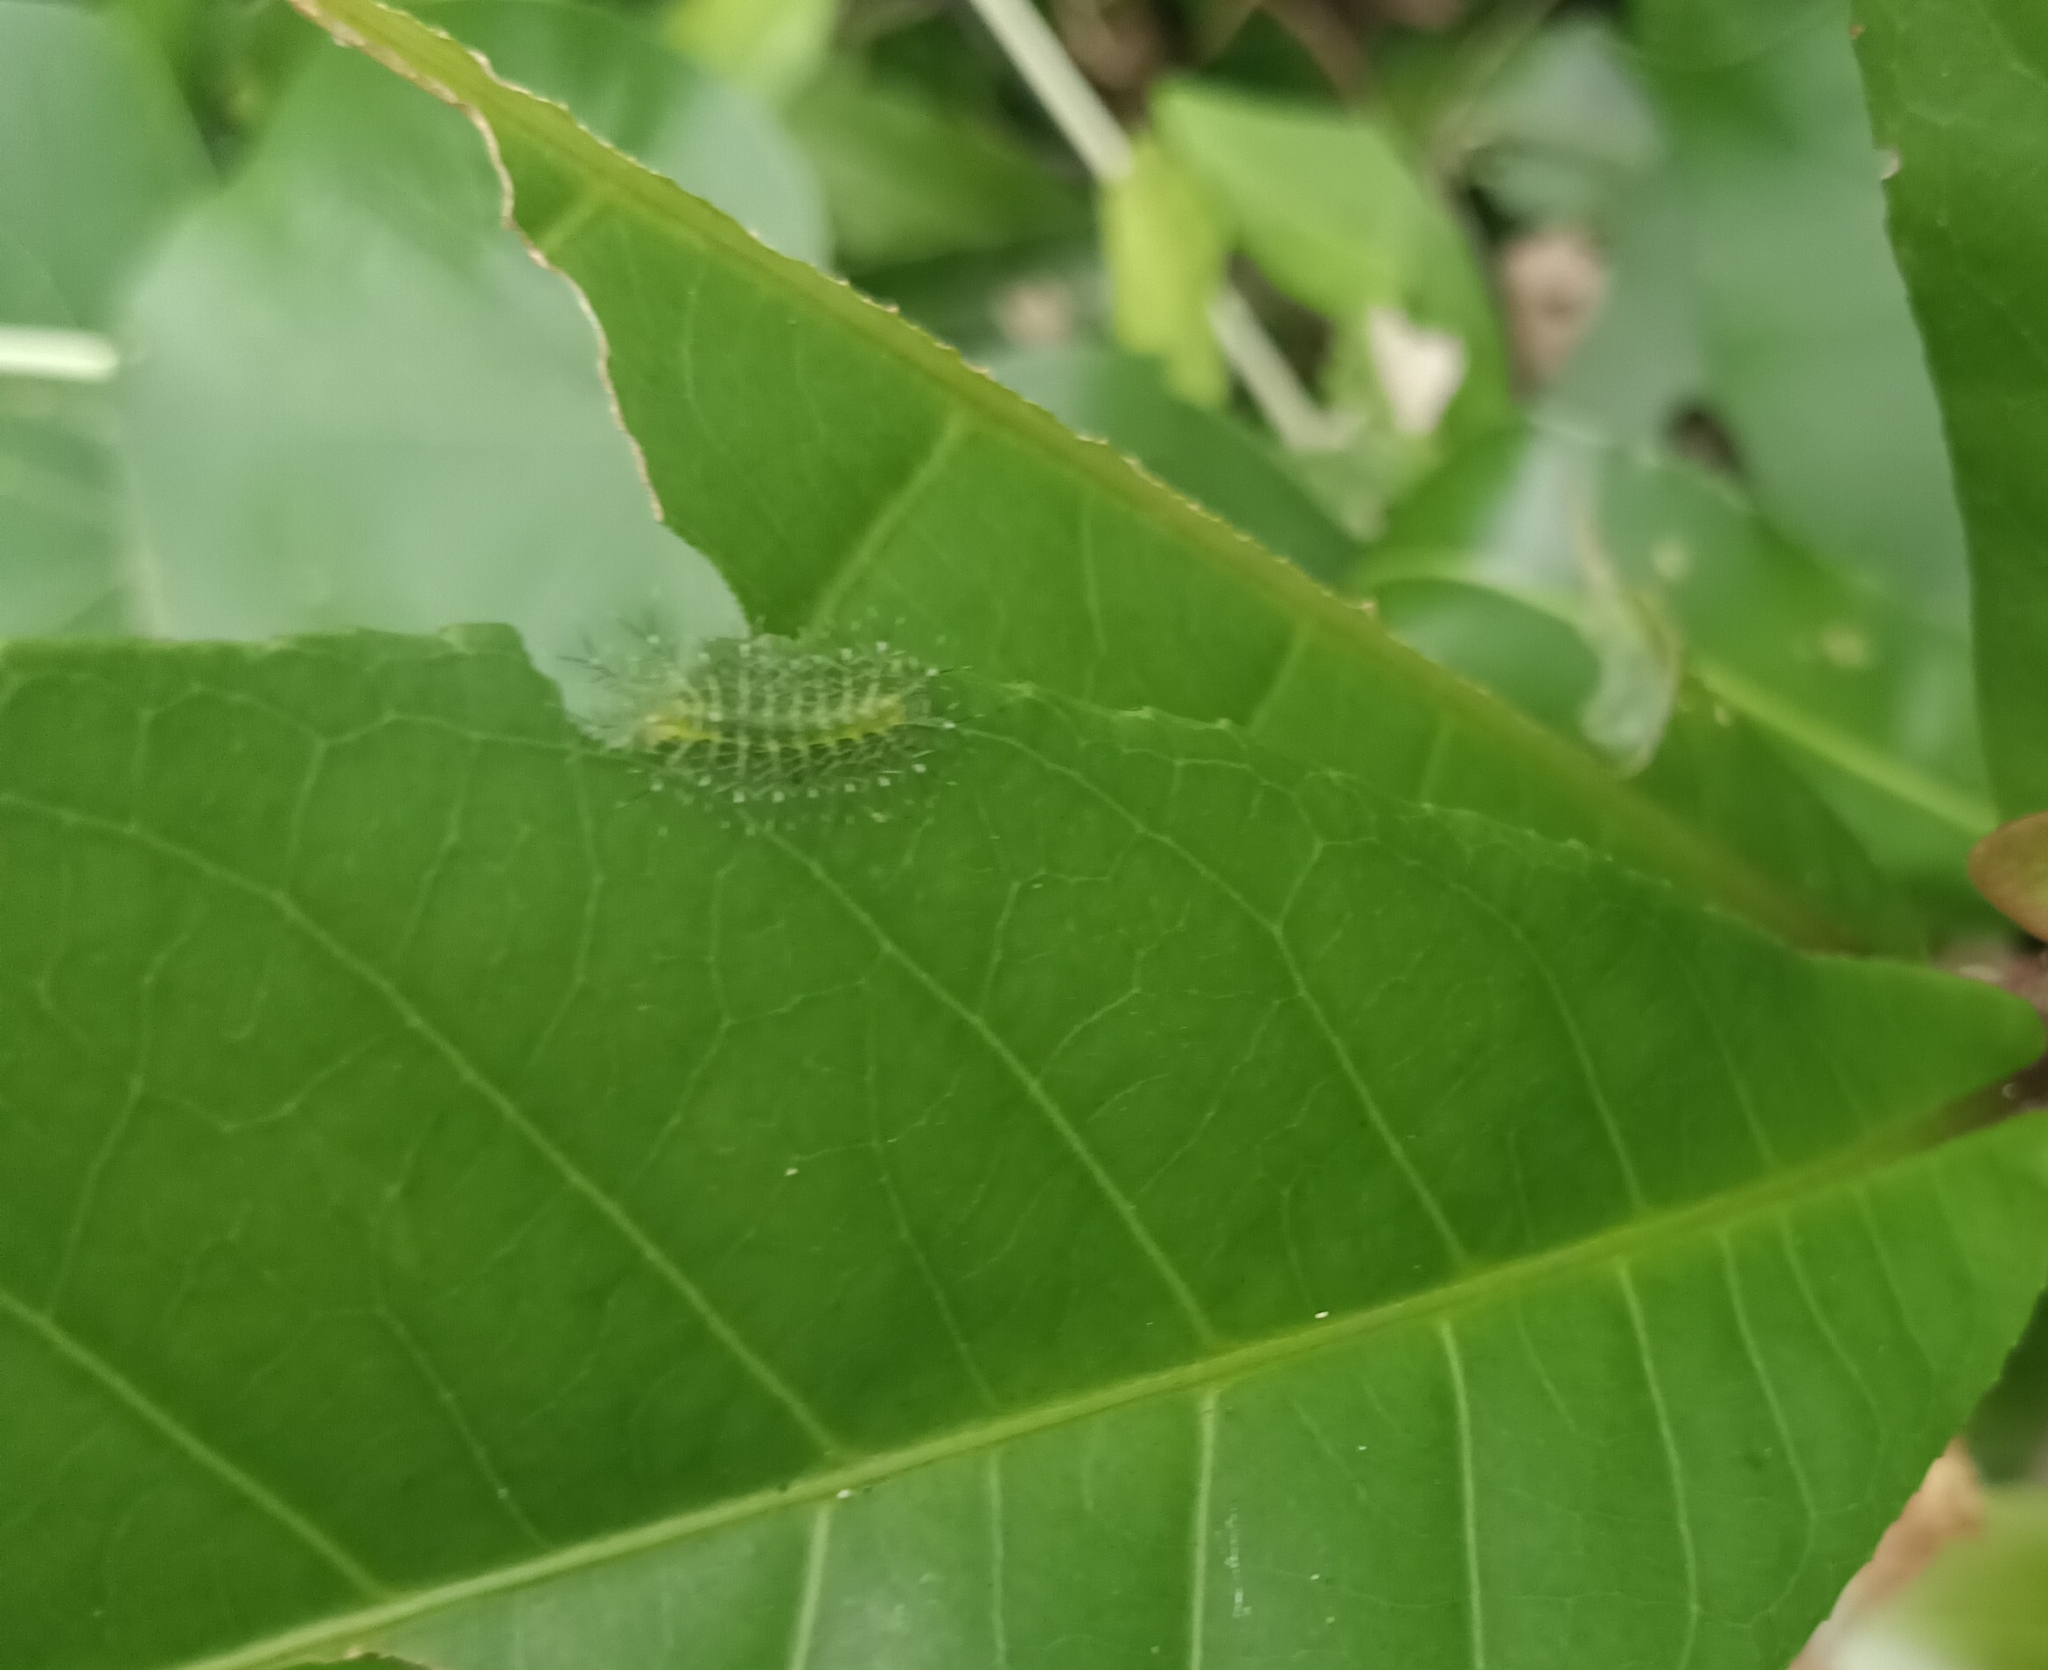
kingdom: Animalia
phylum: Arthropoda
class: Insecta
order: Lepidoptera
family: Nymphalidae
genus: Tanaecia
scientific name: Tanaecia lepidea
